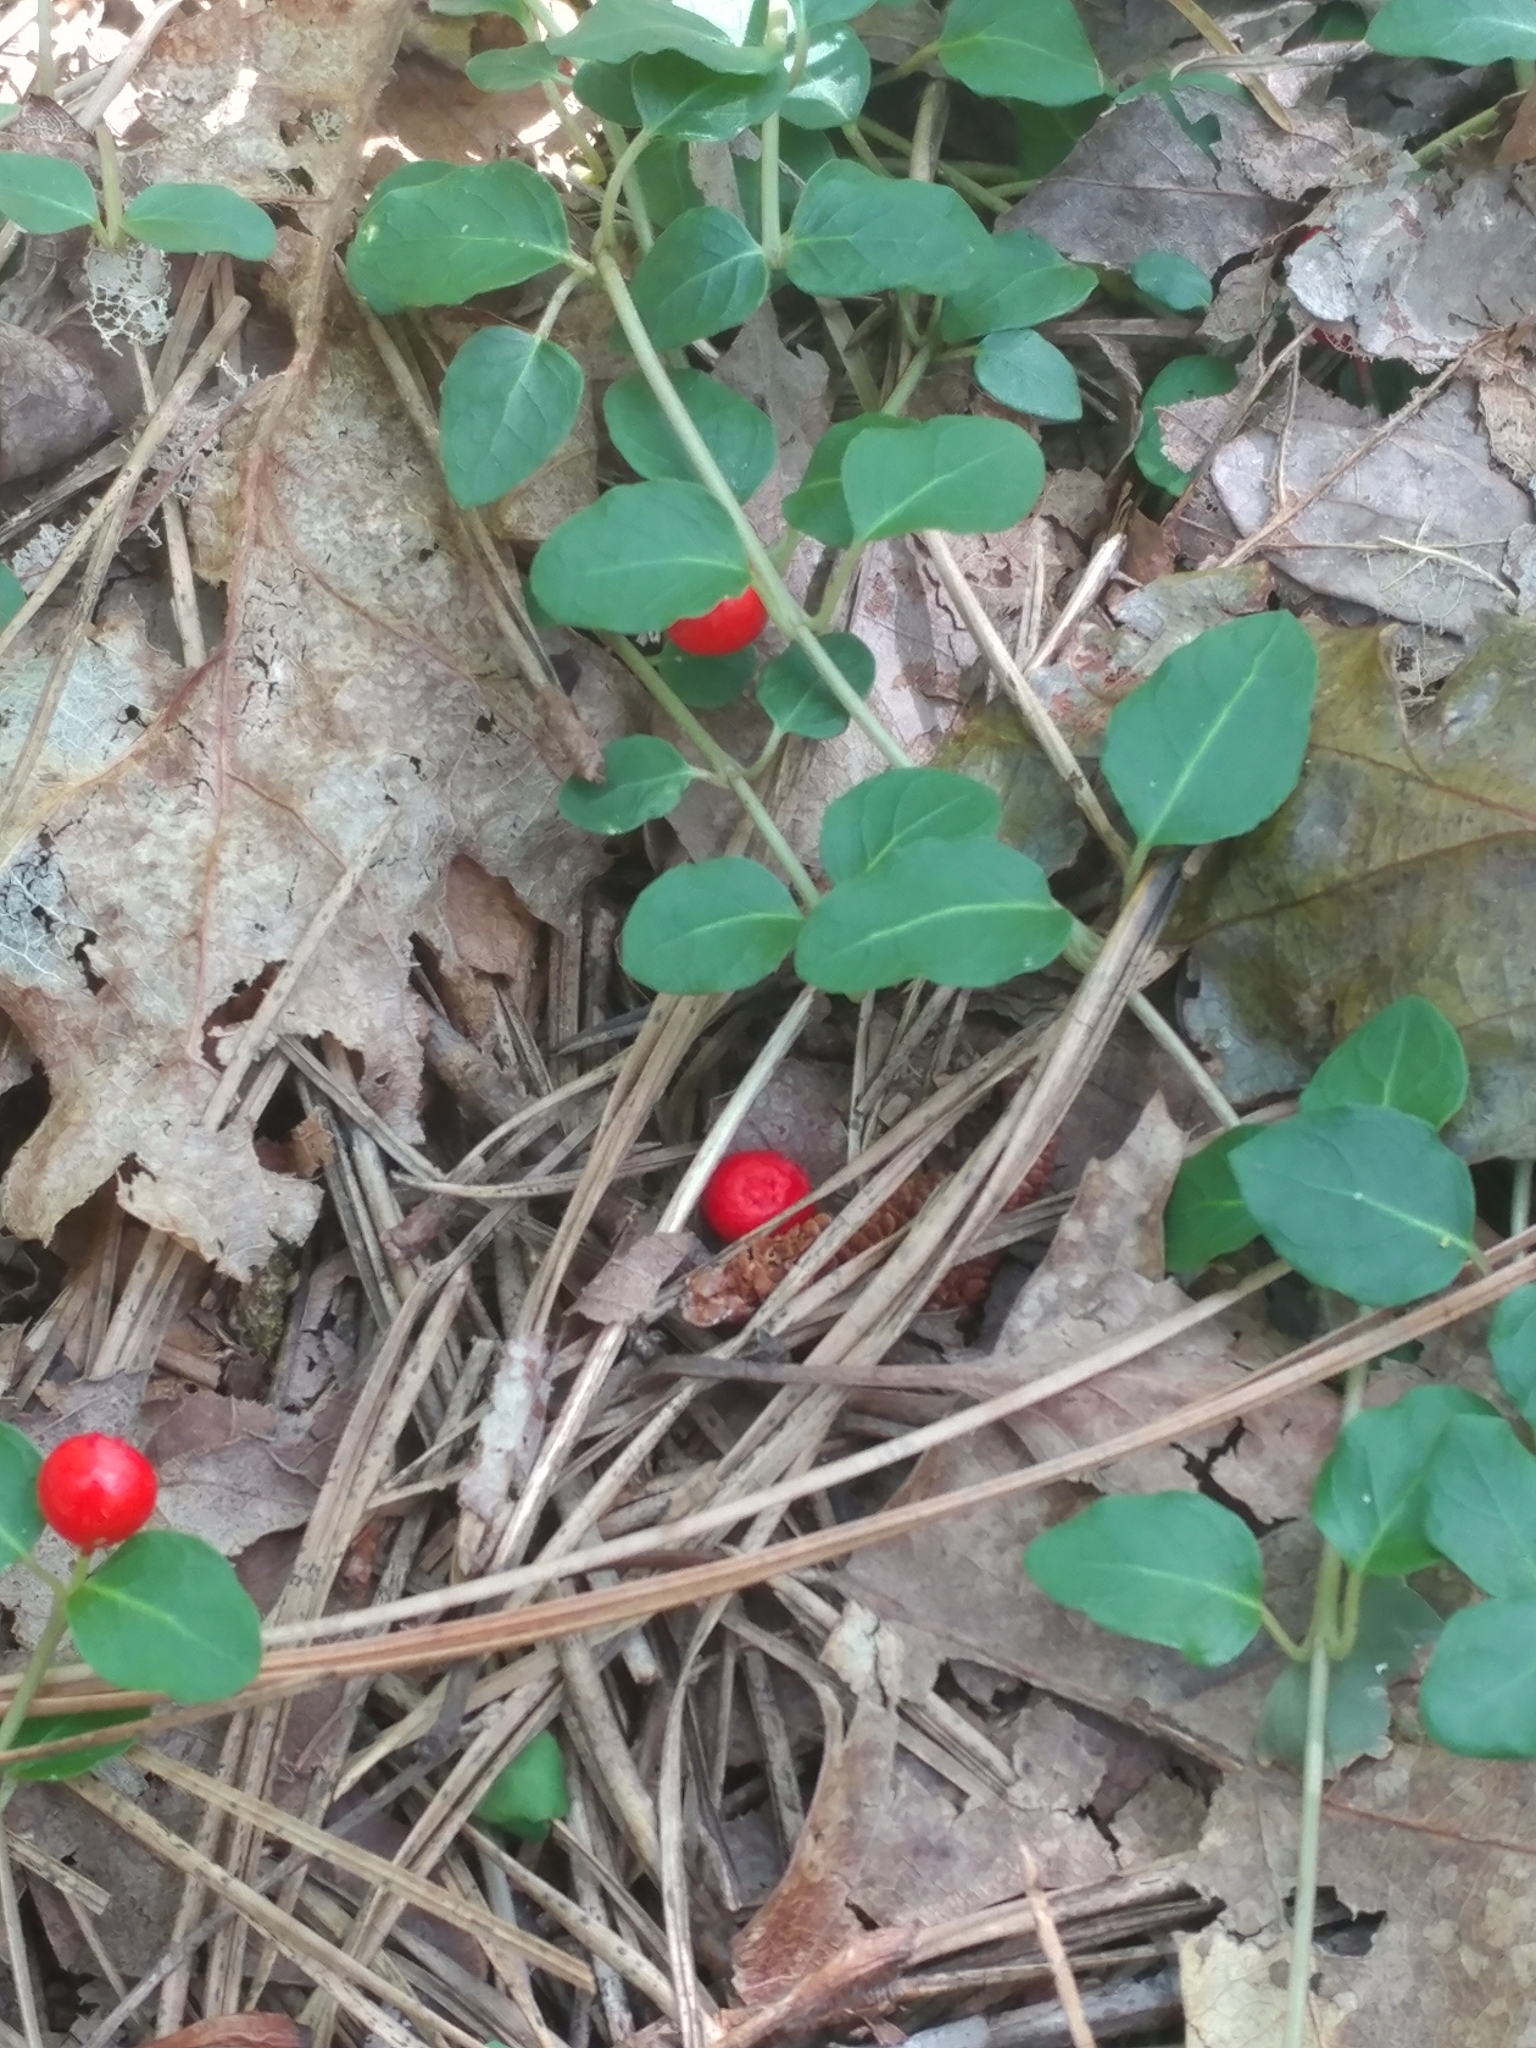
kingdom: Plantae
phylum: Tracheophyta
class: Magnoliopsida
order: Gentianales
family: Rubiaceae
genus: Mitchella
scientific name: Mitchella repens
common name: Partridge-berry
